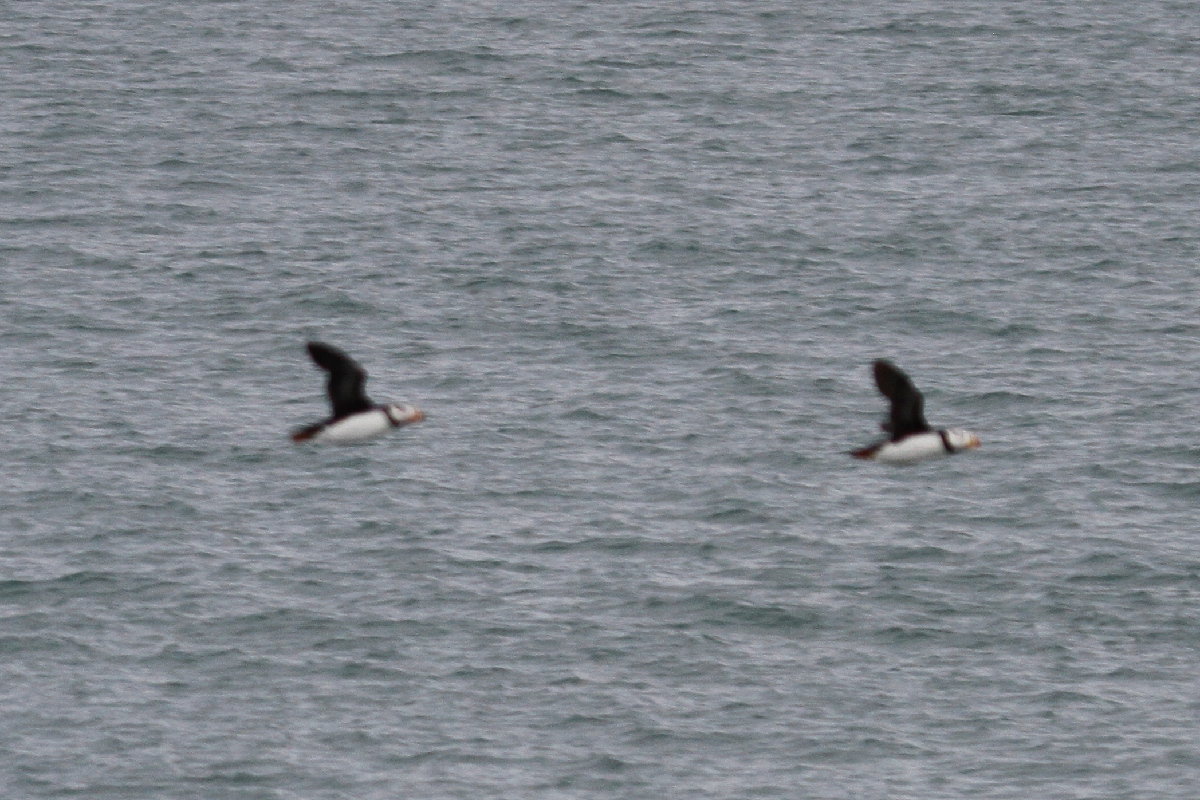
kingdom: Animalia
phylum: Chordata
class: Aves
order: Charadriiformes
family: Alcidae
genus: Fratercula
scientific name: Fratercula corniculata
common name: Horned puffin
